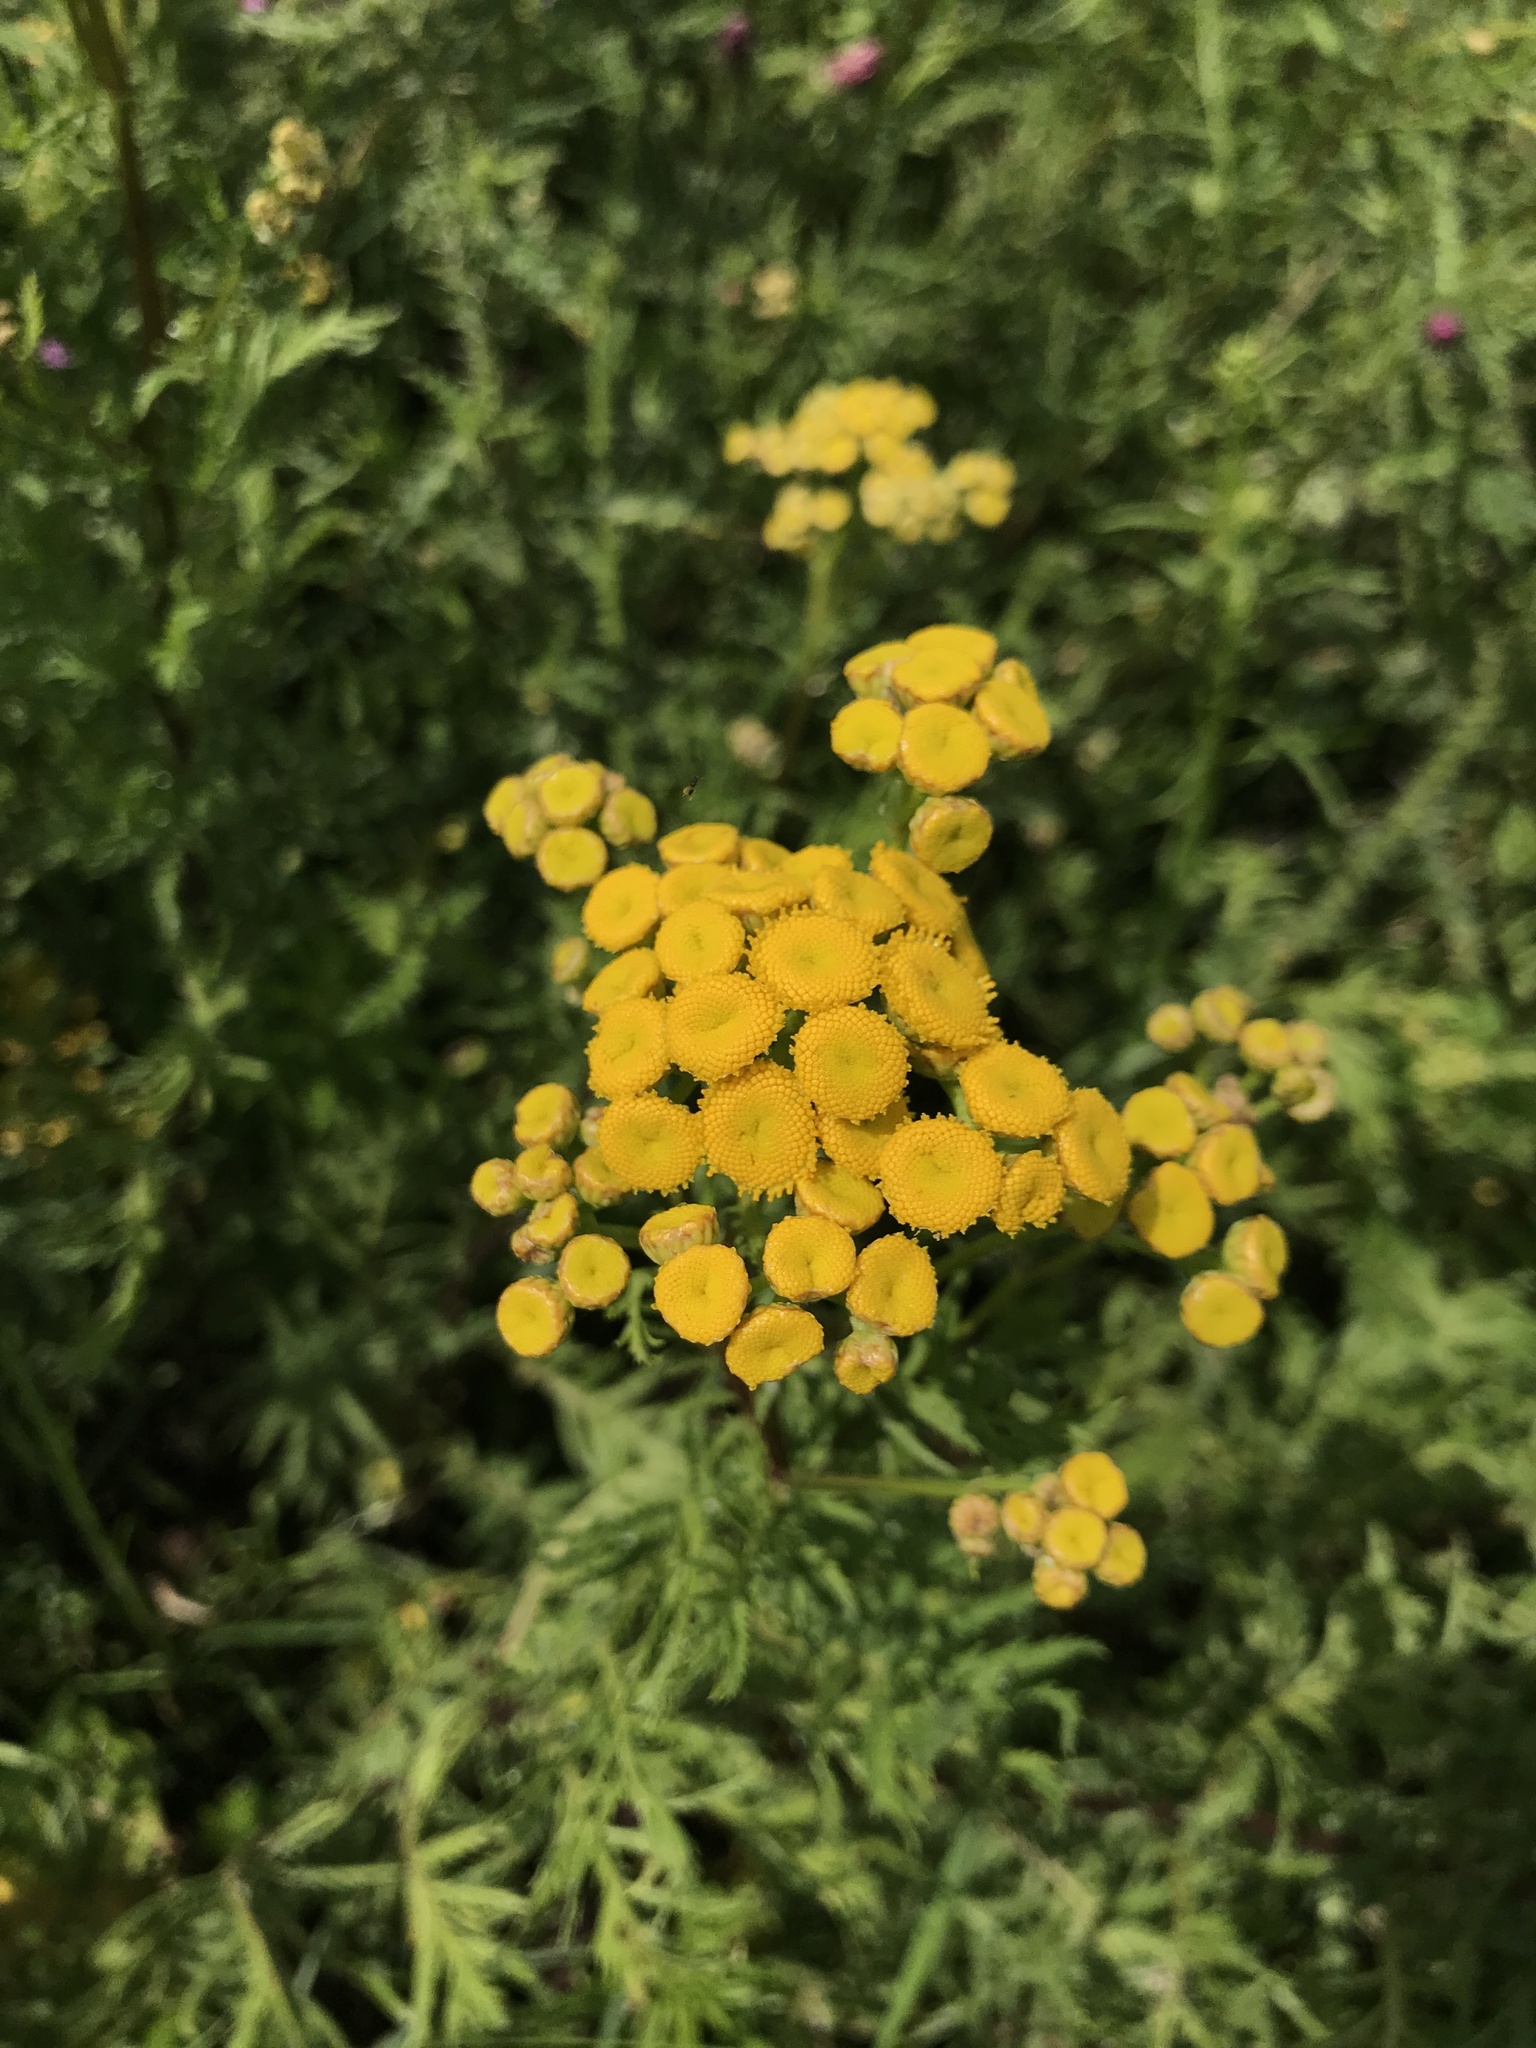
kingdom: Plantae
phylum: Tracheophyta
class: Magnoliopsida
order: Asterales
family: Asteraceae
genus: Tanacetum
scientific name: Tanacetum vulgare
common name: Common tansy
